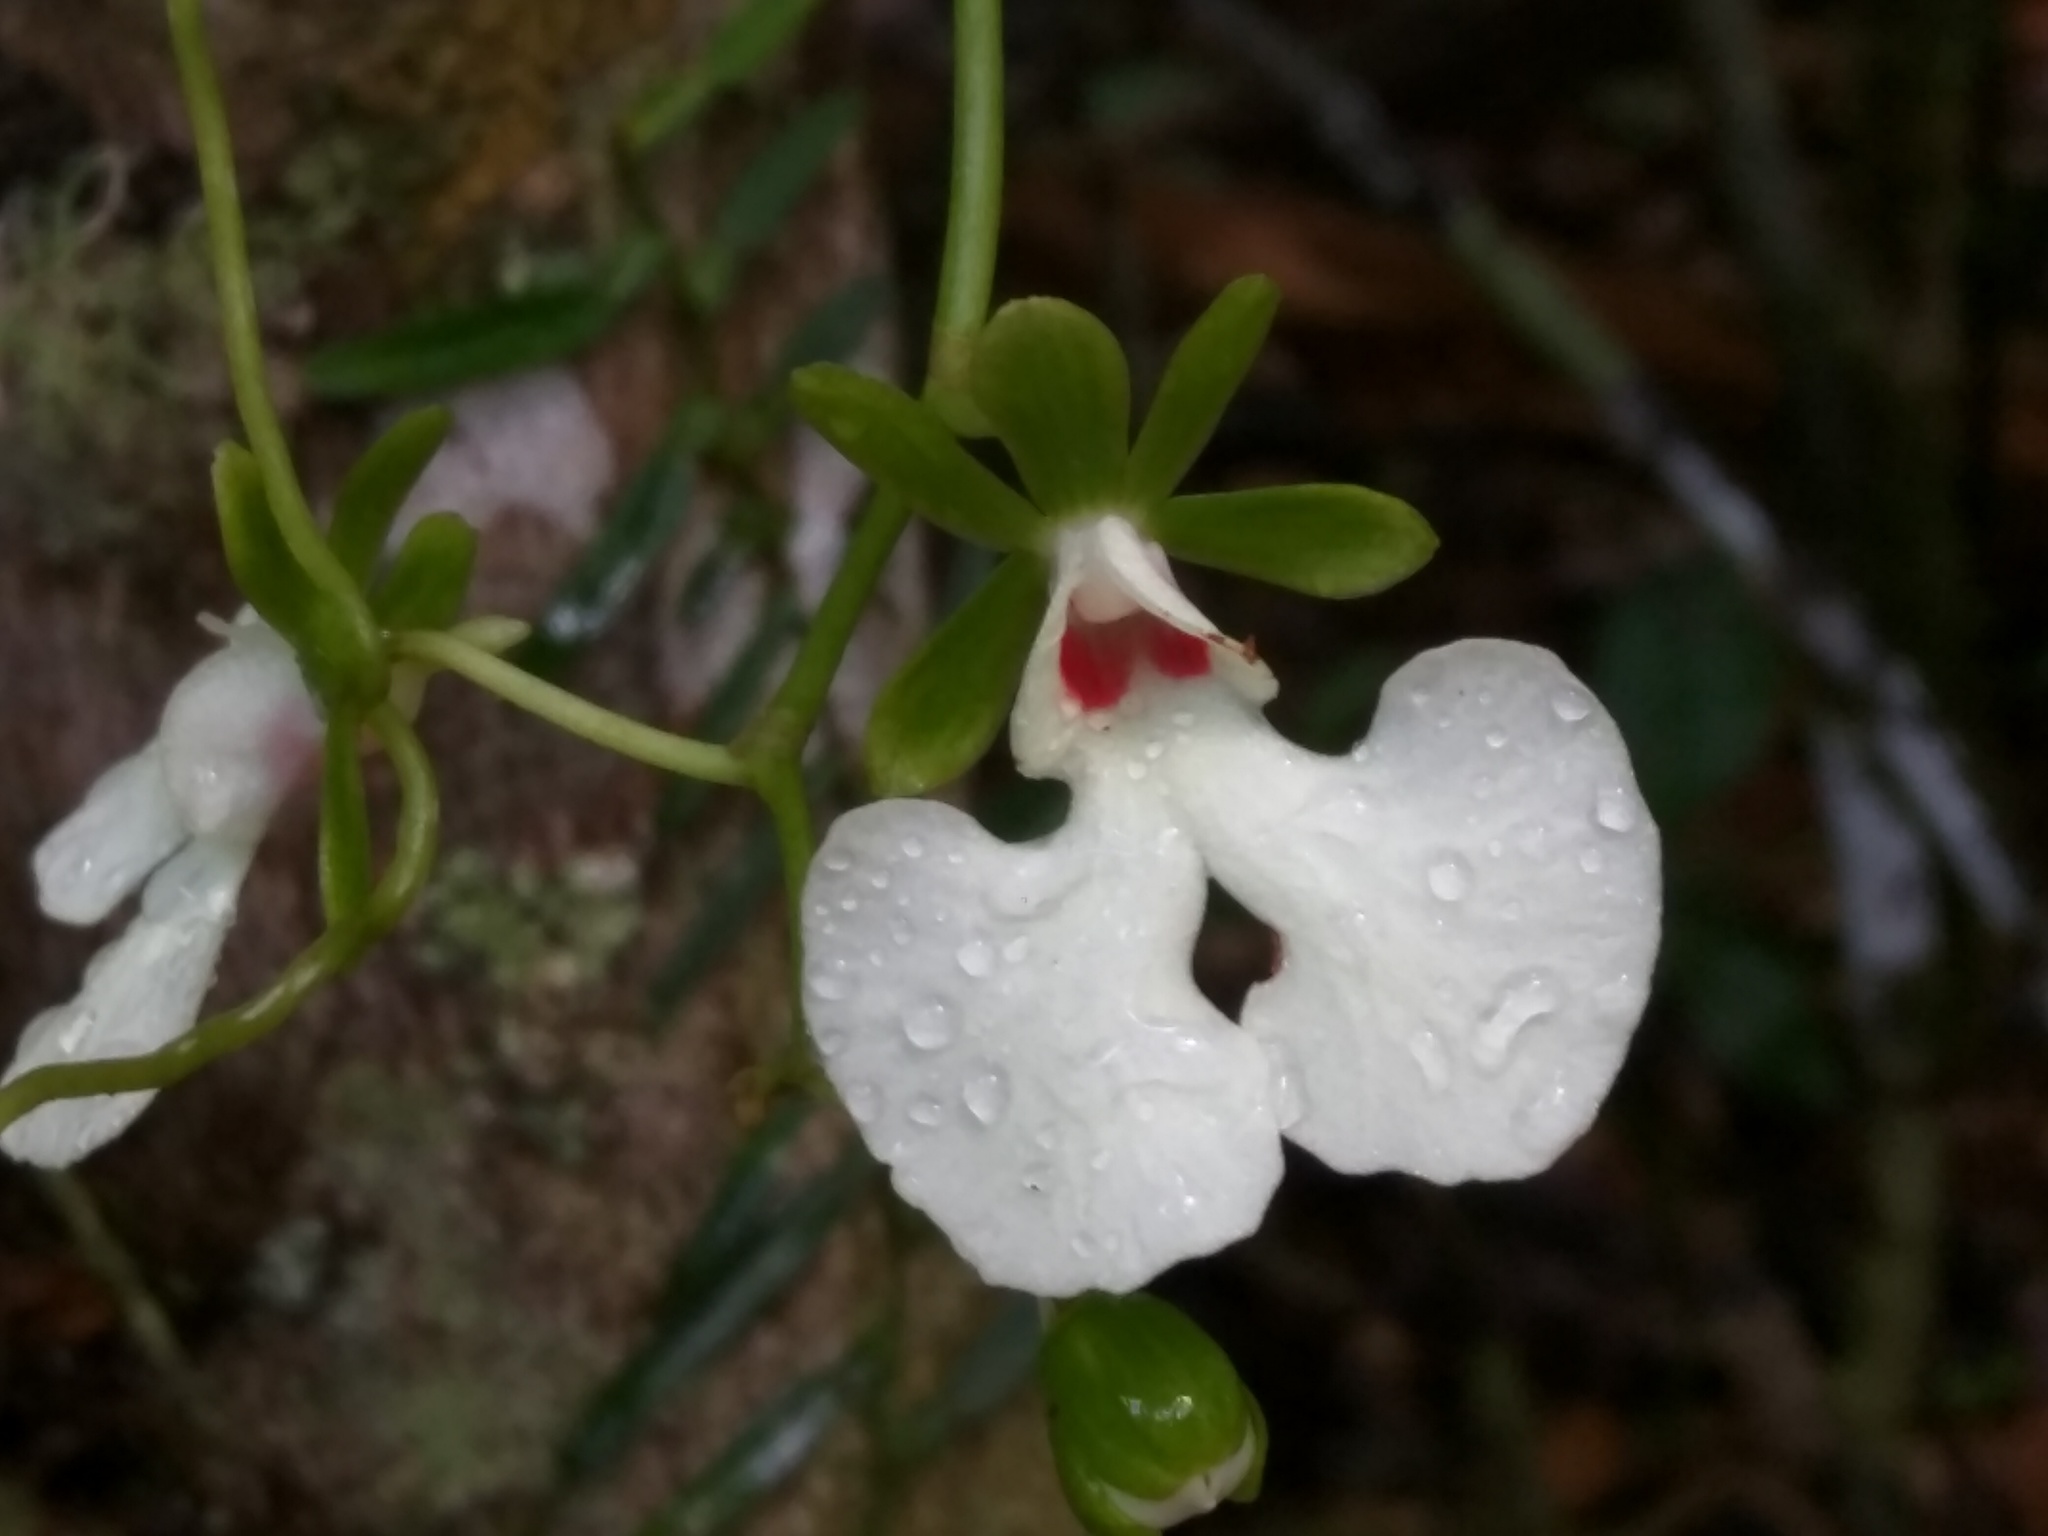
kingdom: Plantae
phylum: Tracheophyta
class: Liliopsida
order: Asparagales
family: Orchidaceae
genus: Oeonia
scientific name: Oeonia rosea
